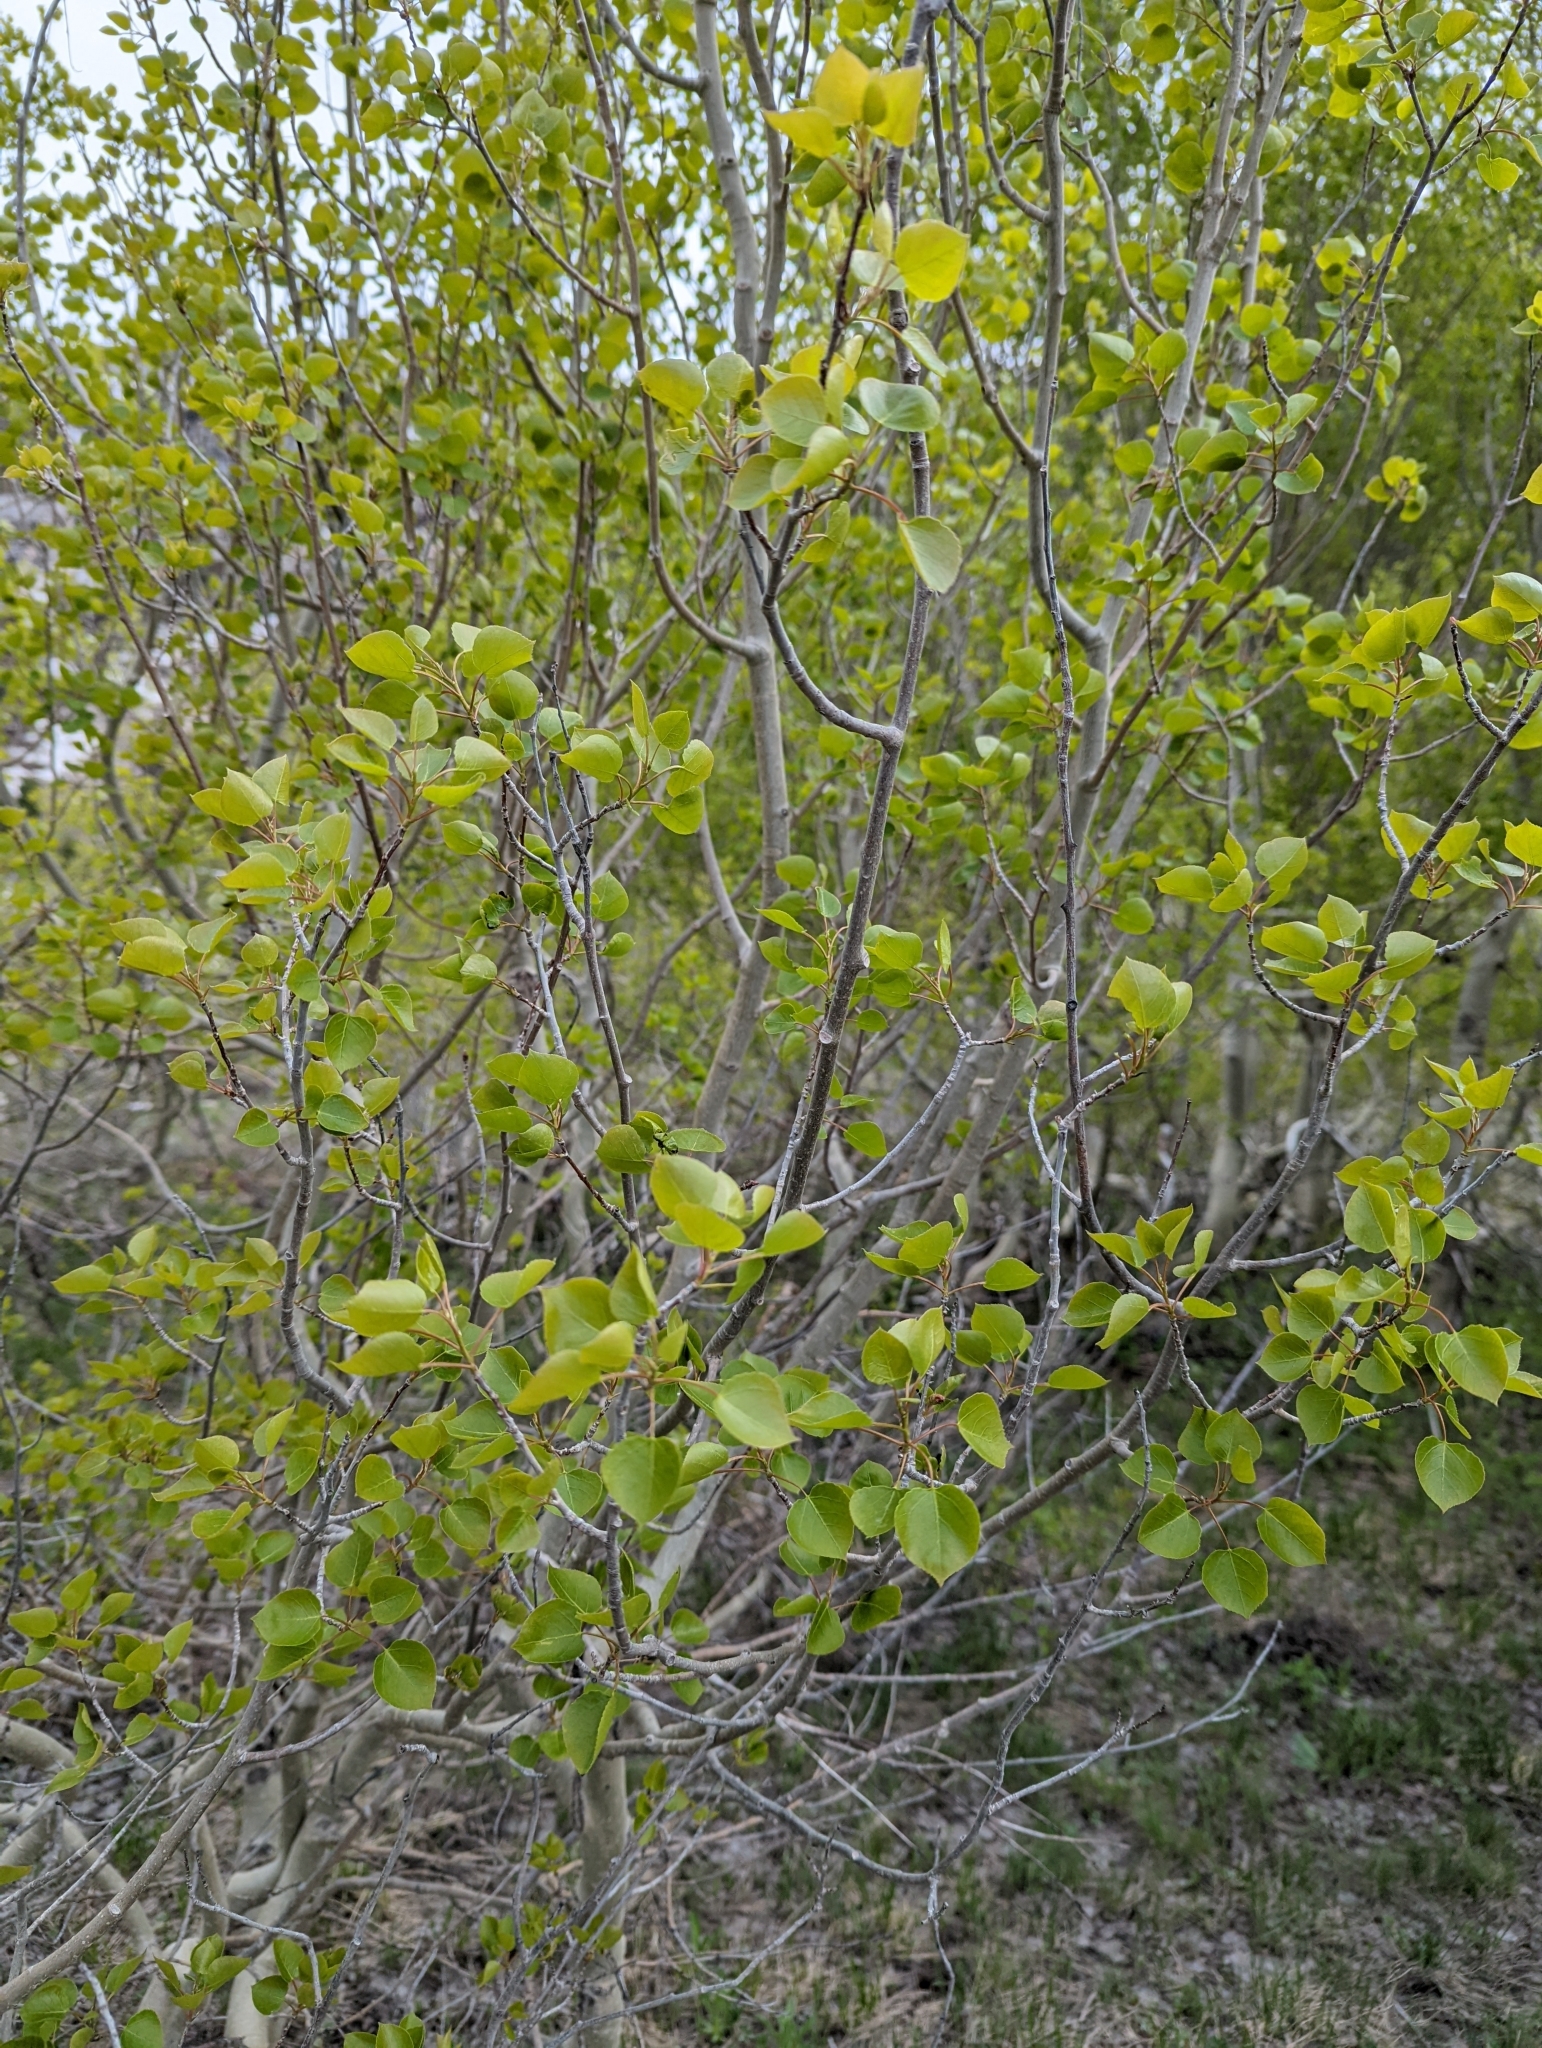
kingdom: Plantae
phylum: Tracheophyta
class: Magnoliopsida
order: Malpighiales
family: Salicaceae
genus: Populus
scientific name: Populus tremuloides
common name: Quaking aspen
